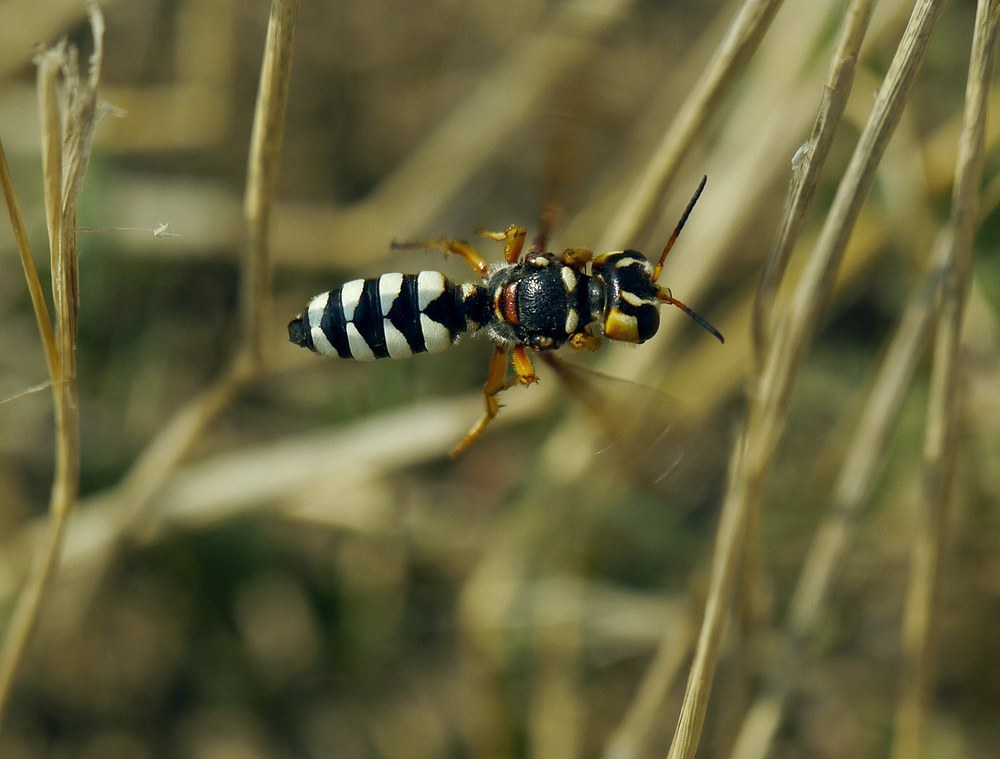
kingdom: Animalia
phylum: Arthropoda
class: Insecta
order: Hymenoptera
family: Crabronidae
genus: Cerceris
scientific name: Cerceris tuberculata
